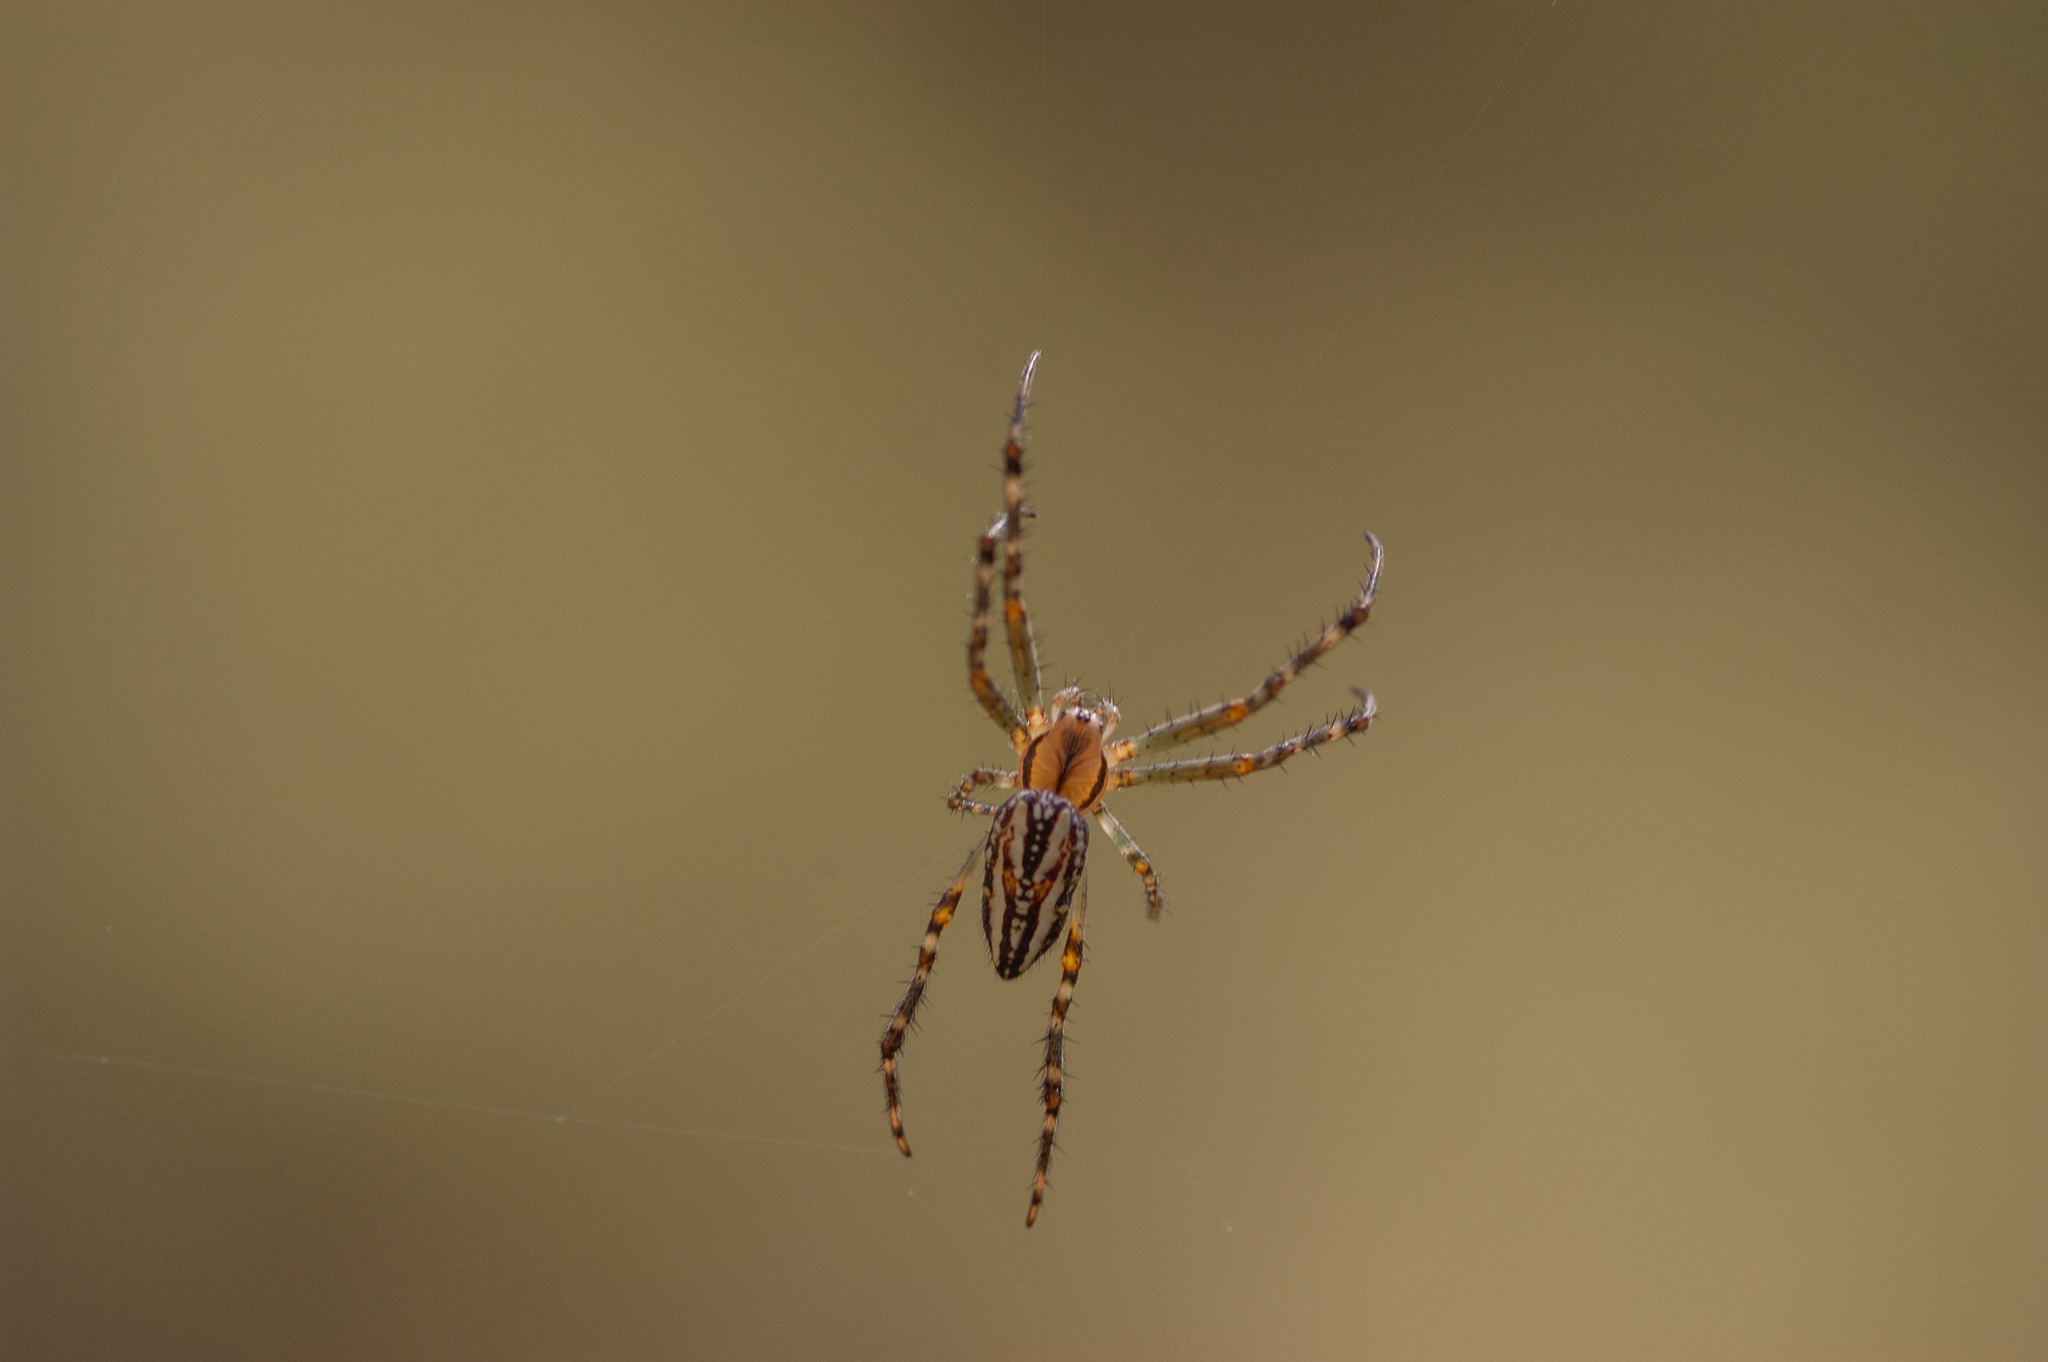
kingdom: Animalia
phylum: Arthropoda
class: Arachnida
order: Araneae
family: Araneidae
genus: Plebs
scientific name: Plebs bradleyi
